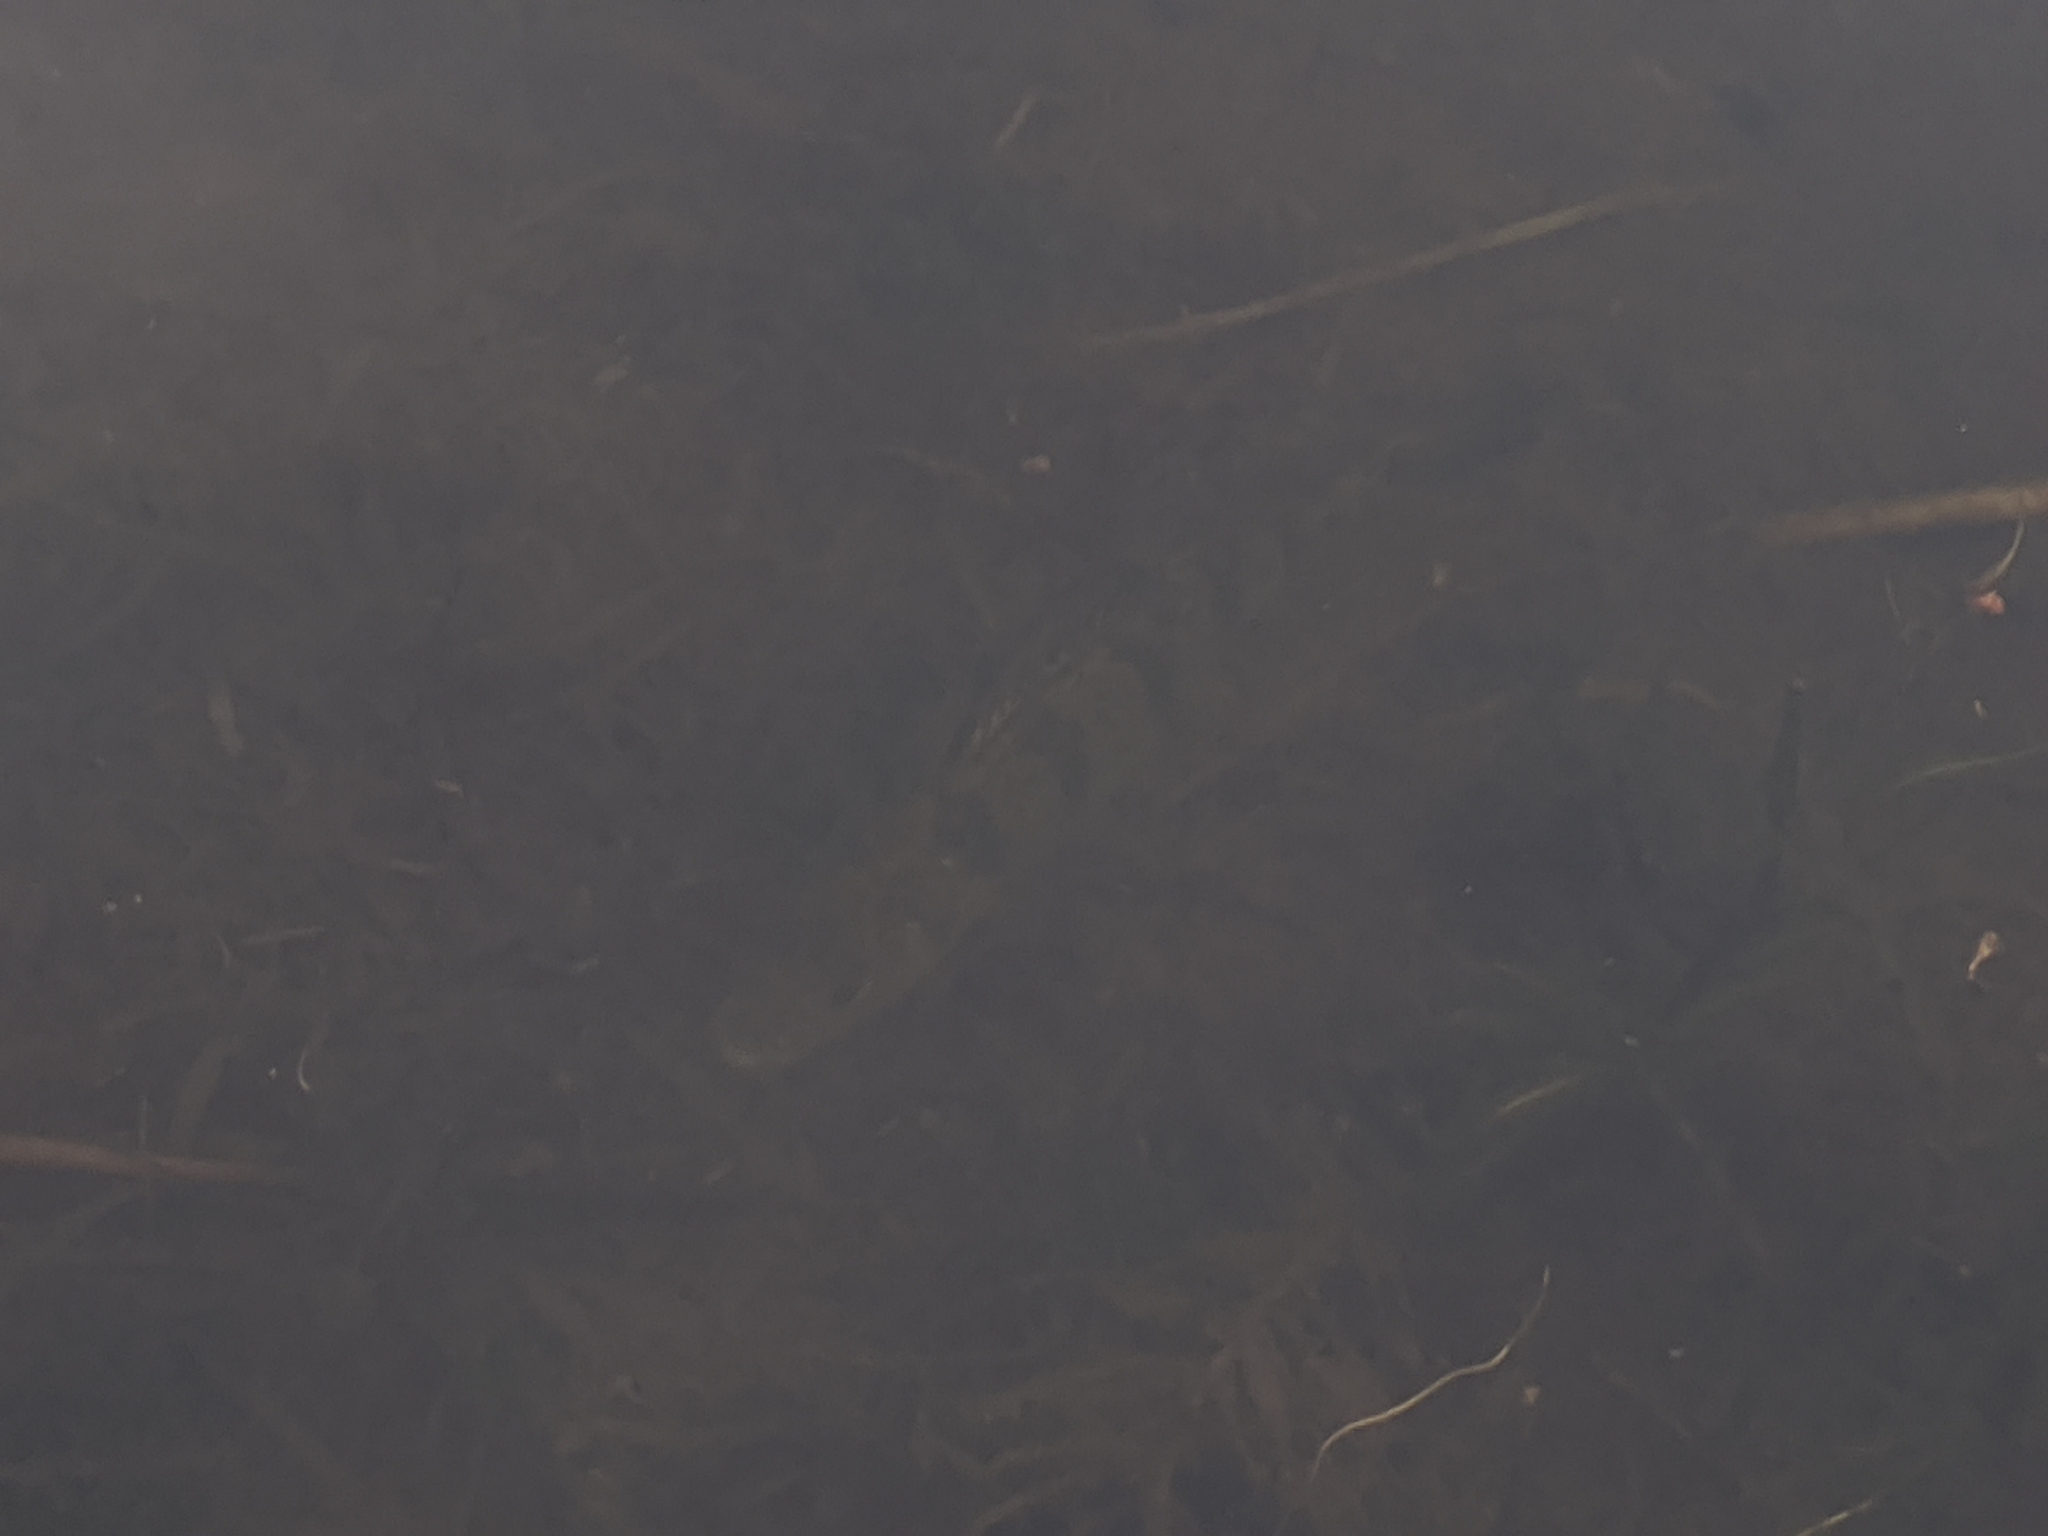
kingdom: Animalia
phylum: Chordata
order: Perciformes
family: Percidae
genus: Perca
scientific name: Perca flavescens
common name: Yellow perch
